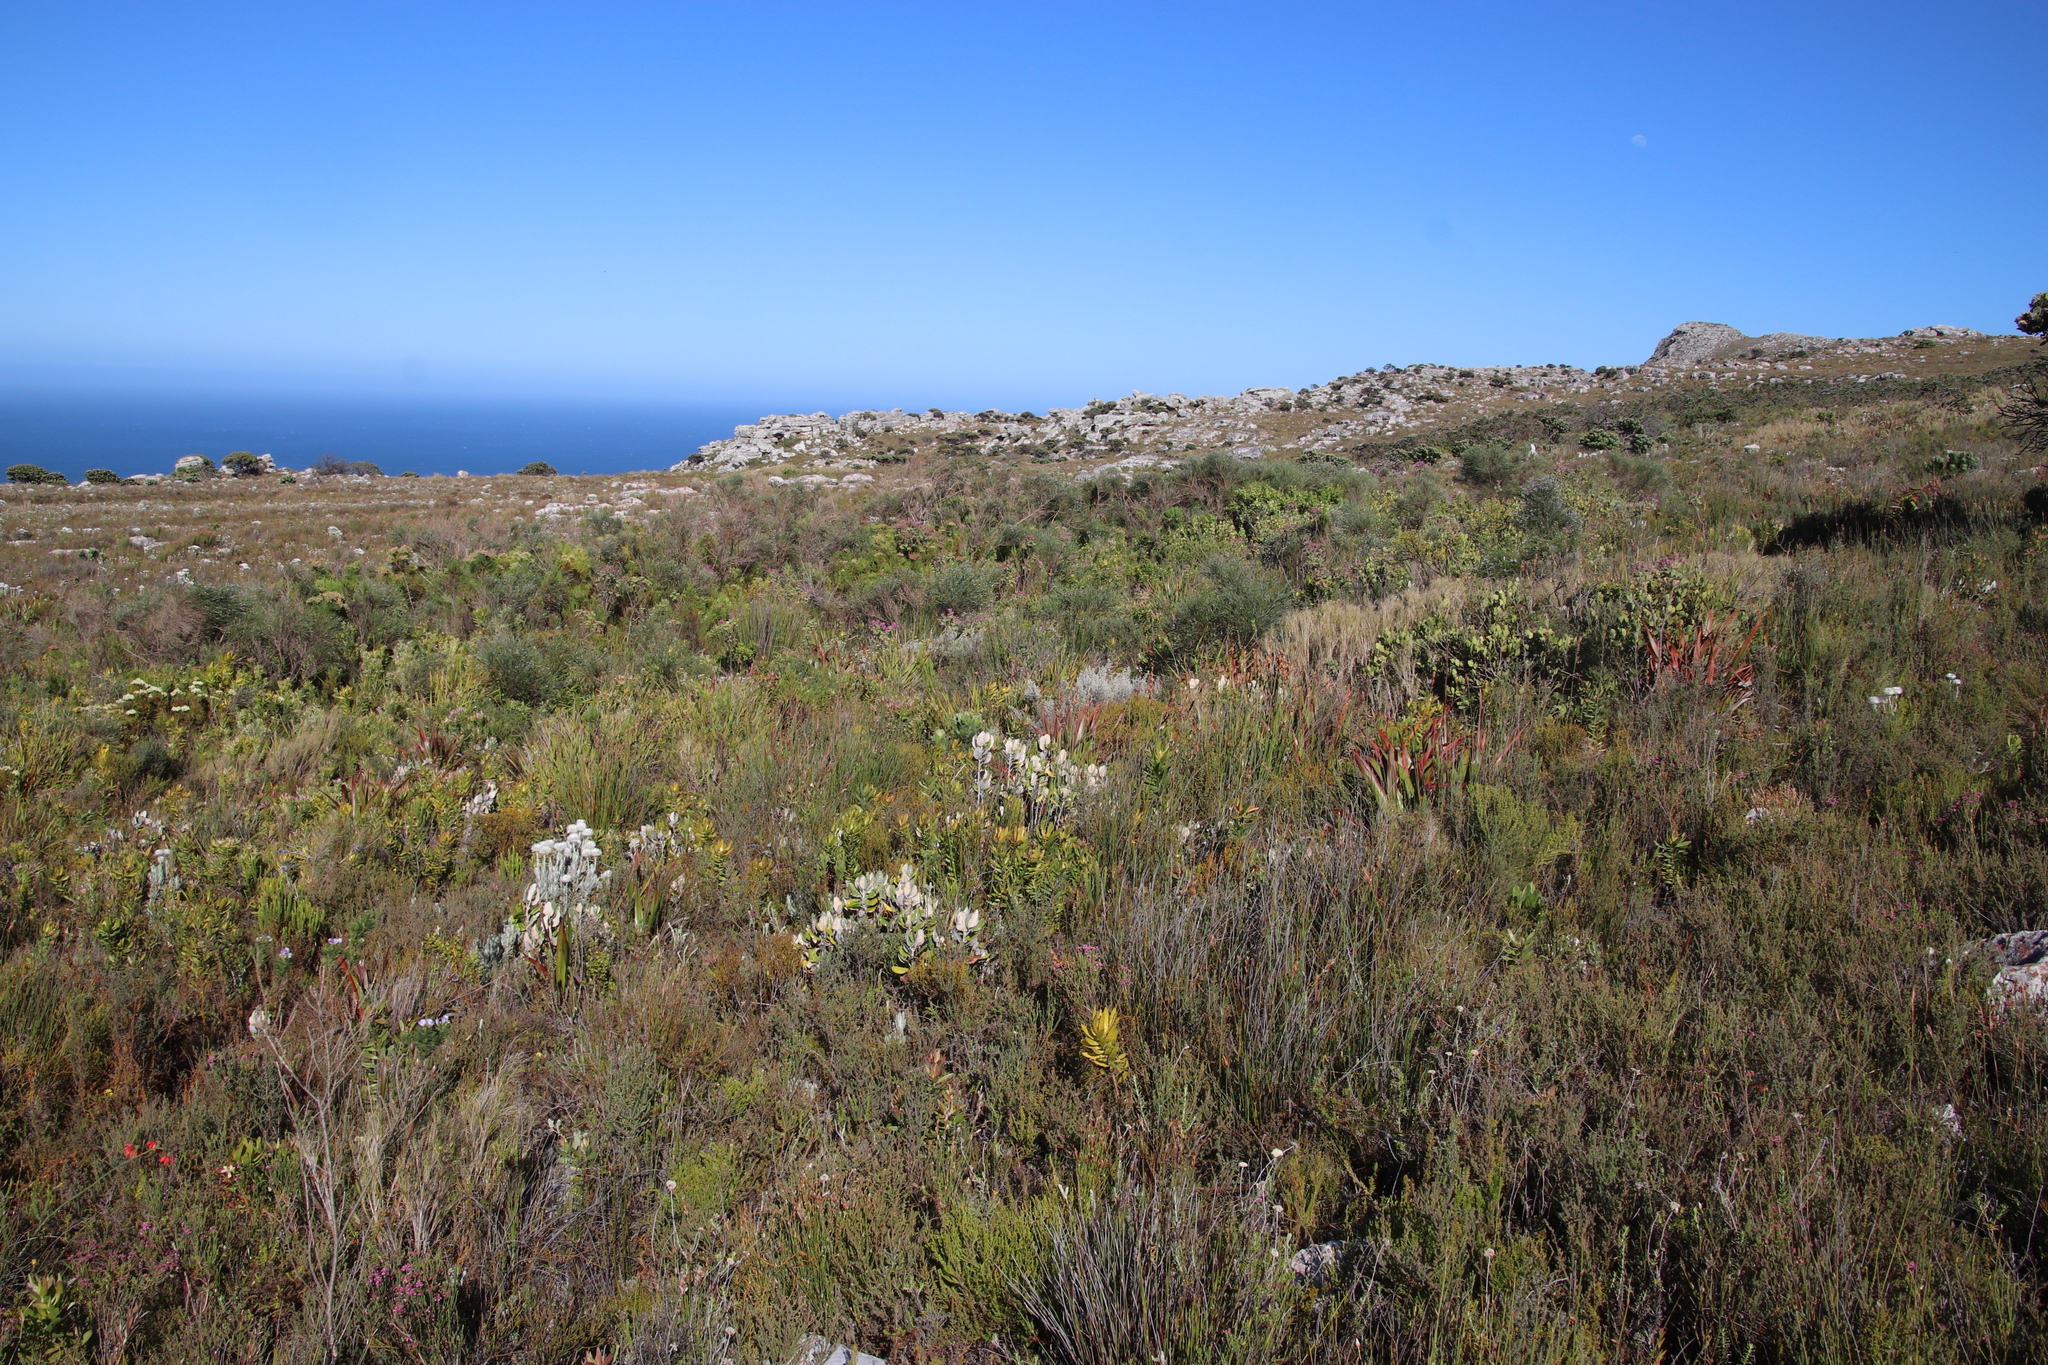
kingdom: Plantae
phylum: Tracheophyta
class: Magnoliopsida
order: Proteales
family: Proteaceae
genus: Leucadendron
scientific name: Leucadendron laureolum
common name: Golden sunshinebush
